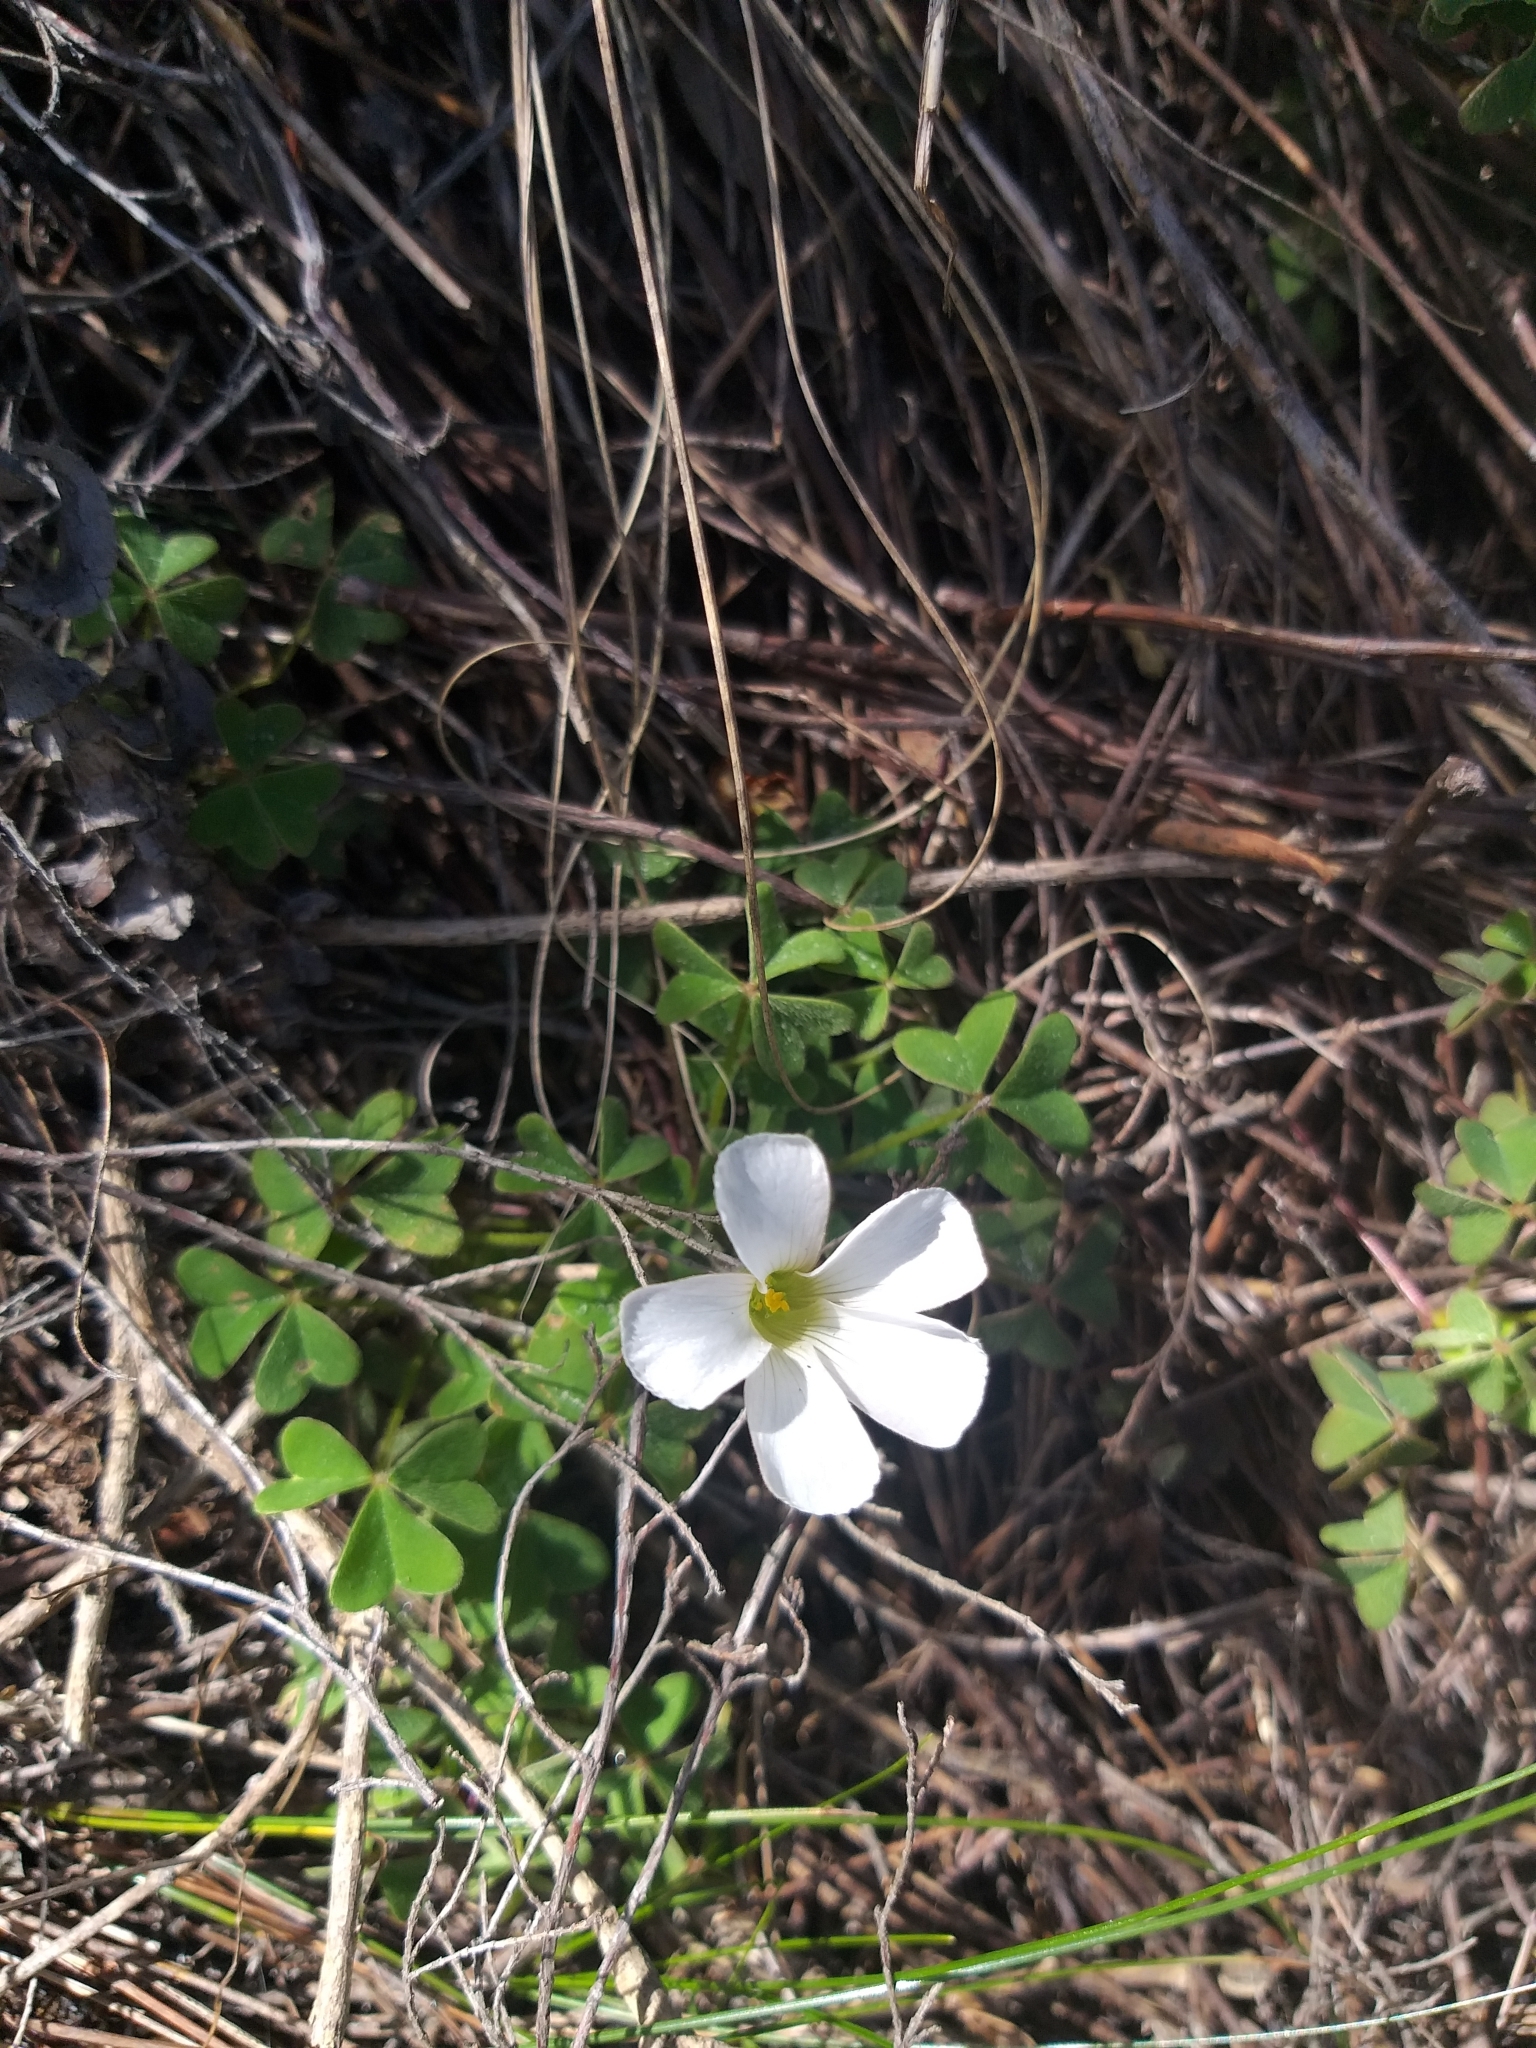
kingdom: Plantae
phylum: Tracheophyta
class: Magnoliopsida
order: Oxalidales
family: Oxalidaceae
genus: Oxalis
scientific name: Oxalis lanata
